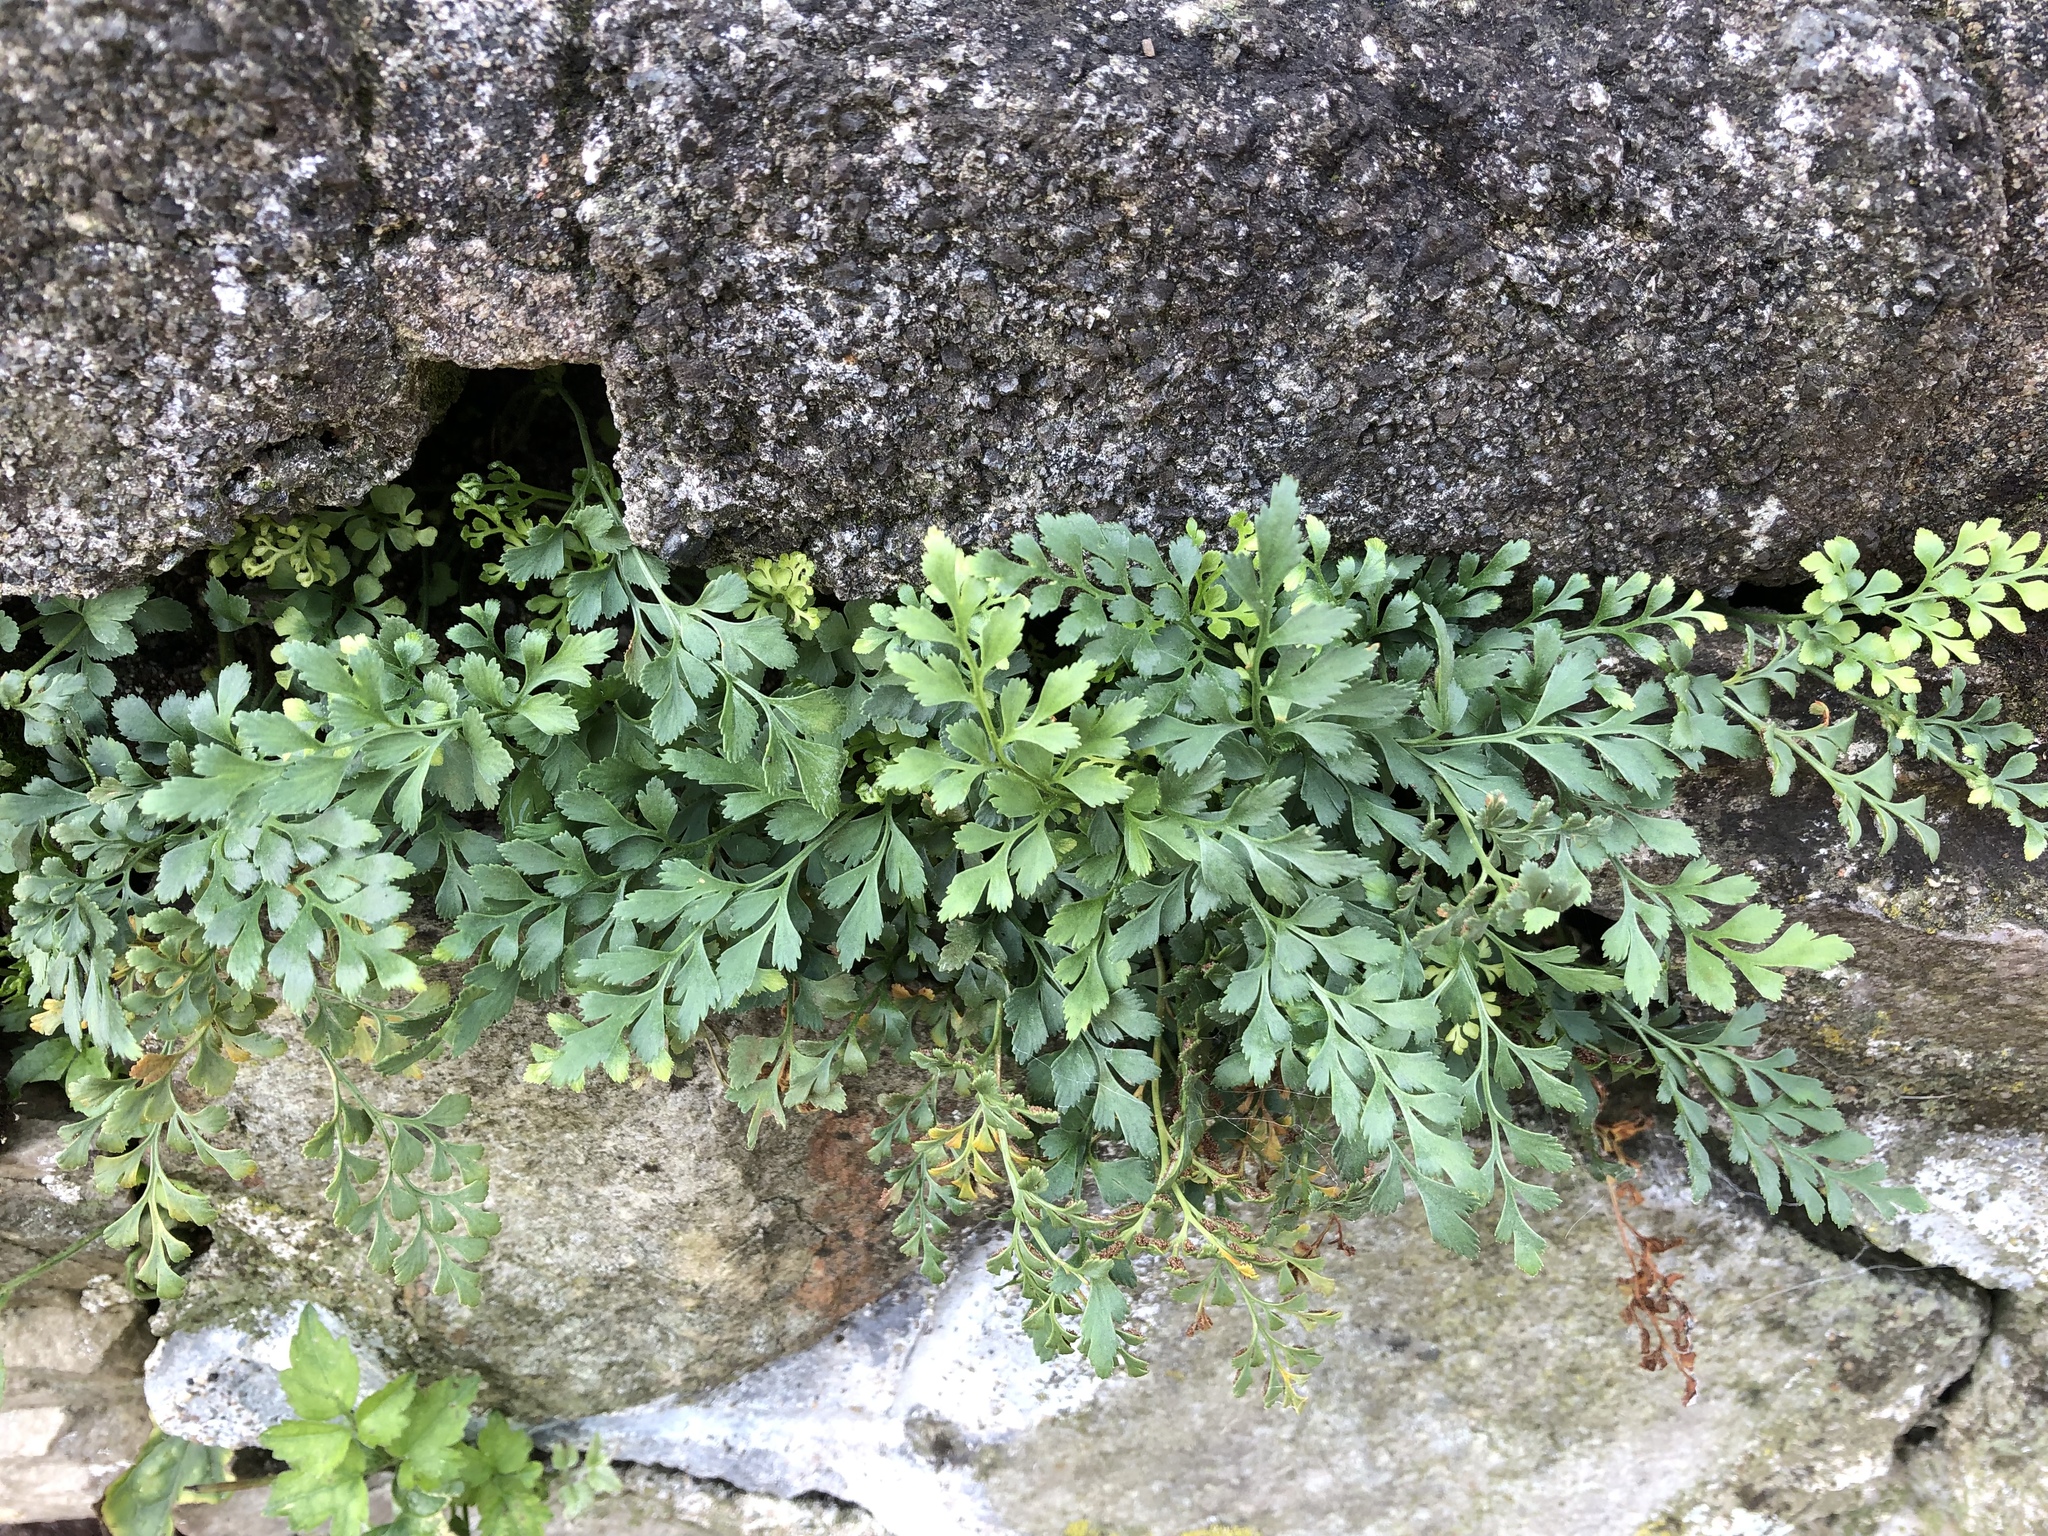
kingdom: Plantae
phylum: Tracheophyta
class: Polypodiopsida
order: Polypodiales
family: Aspleniaceae
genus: Asplenium
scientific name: Asplenium ruta-muraria
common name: Wall-rue
